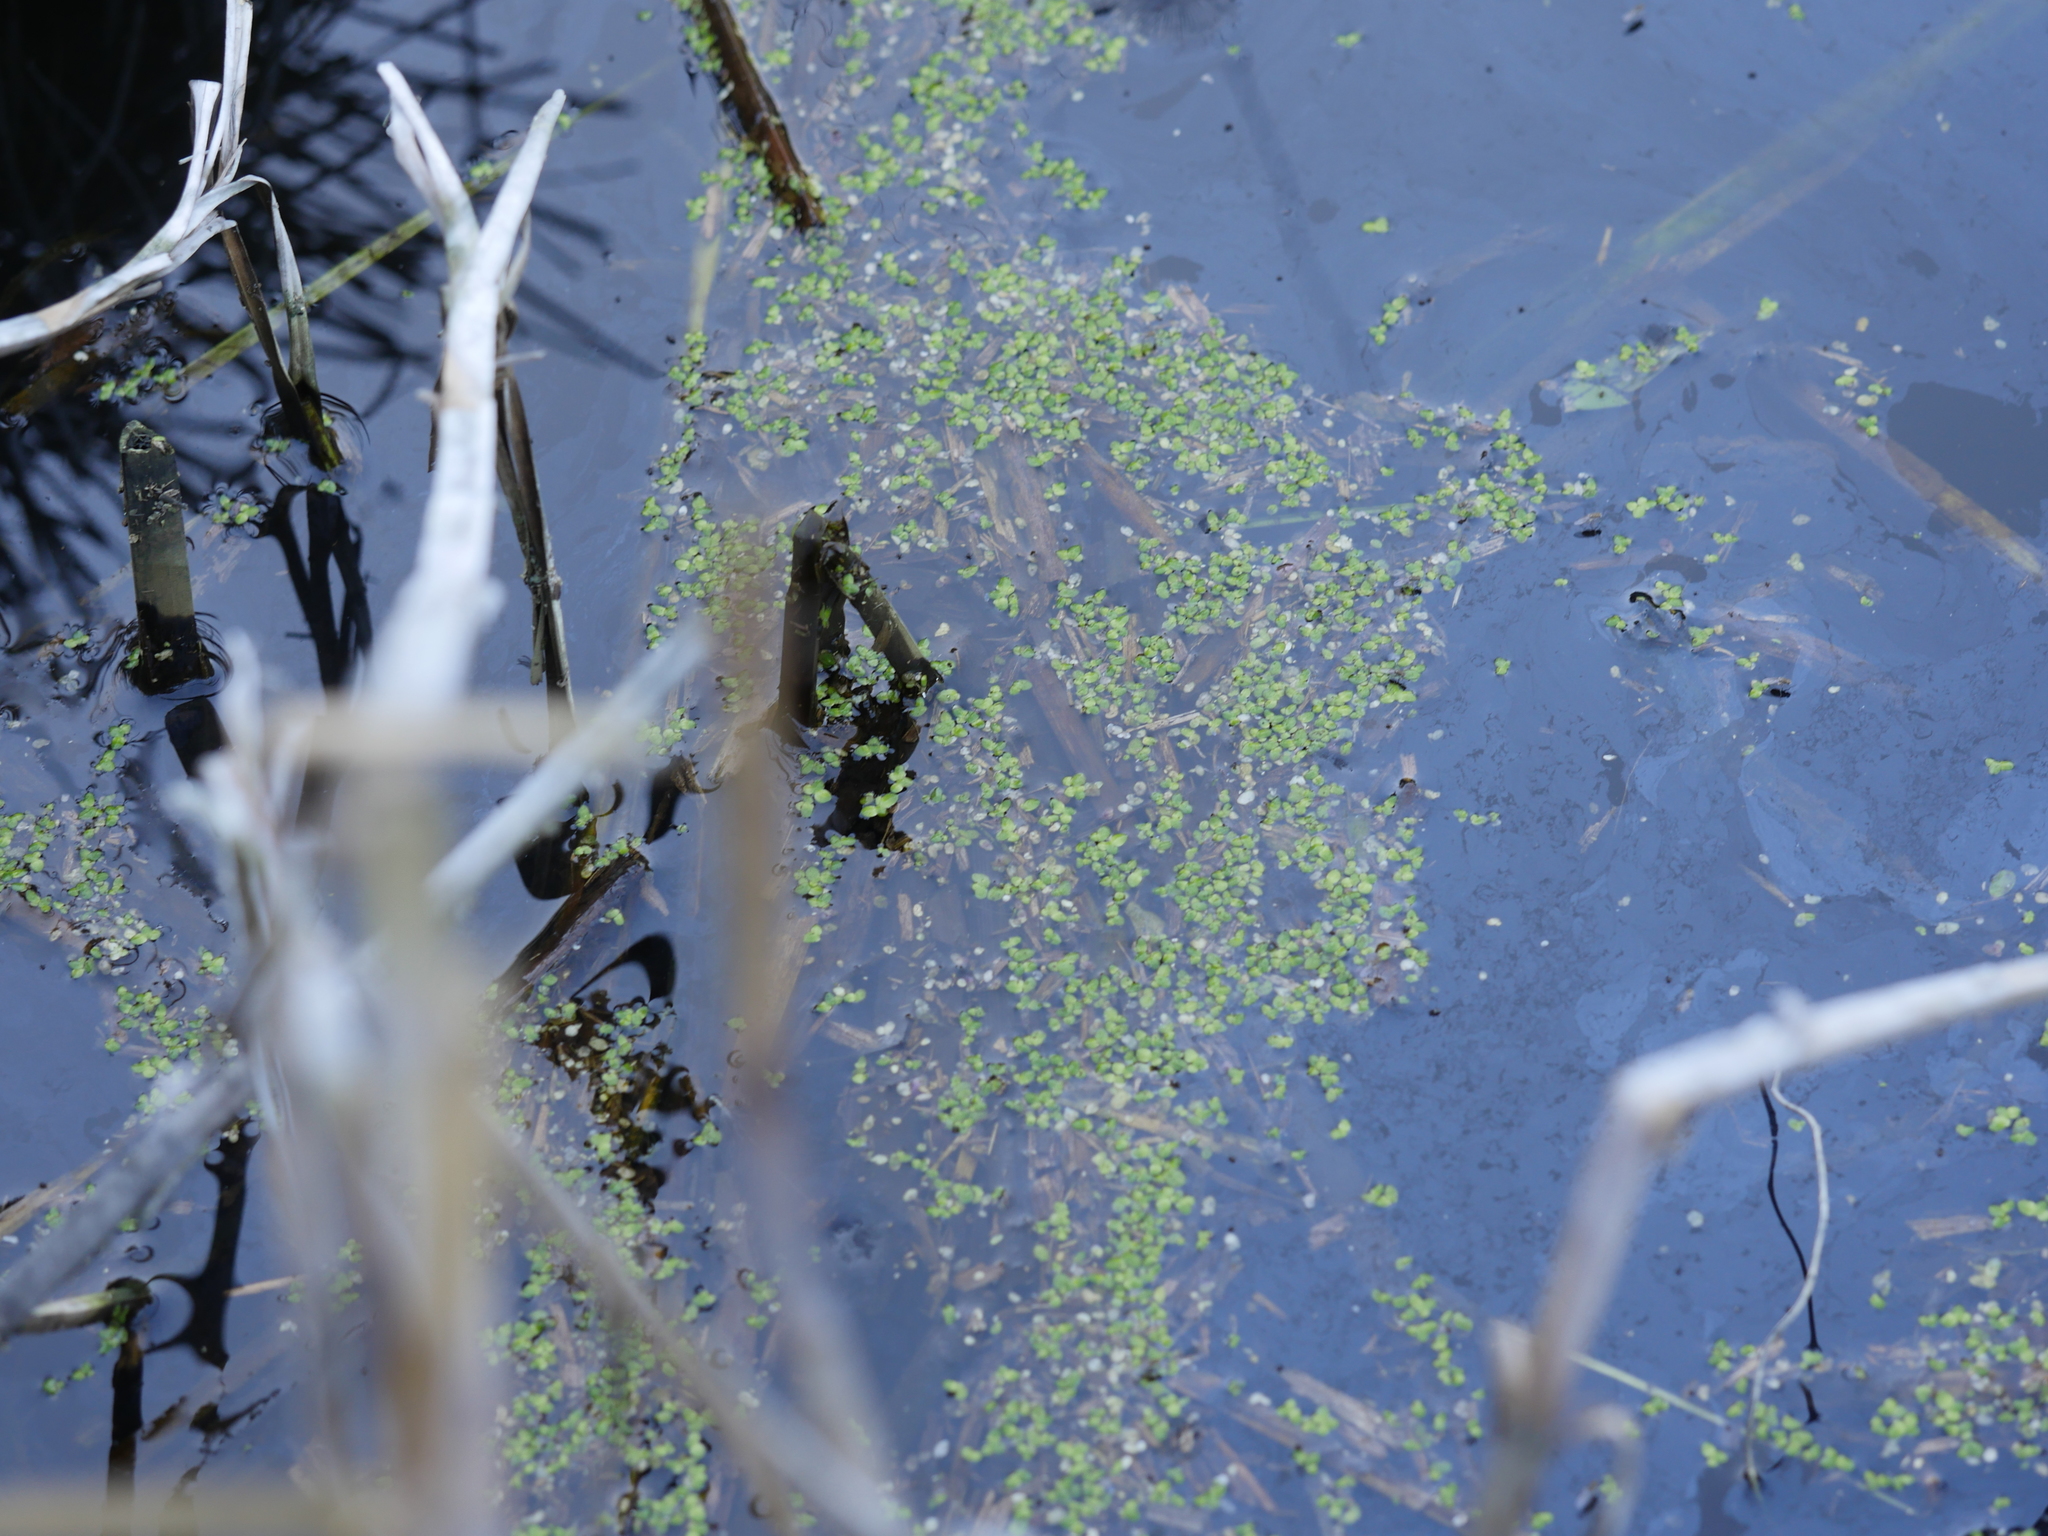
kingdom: Plantae
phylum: Tracheophyta
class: Liliopsida
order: Alismatales
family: Araceae
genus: Spirodela
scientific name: Spirodela punctata
